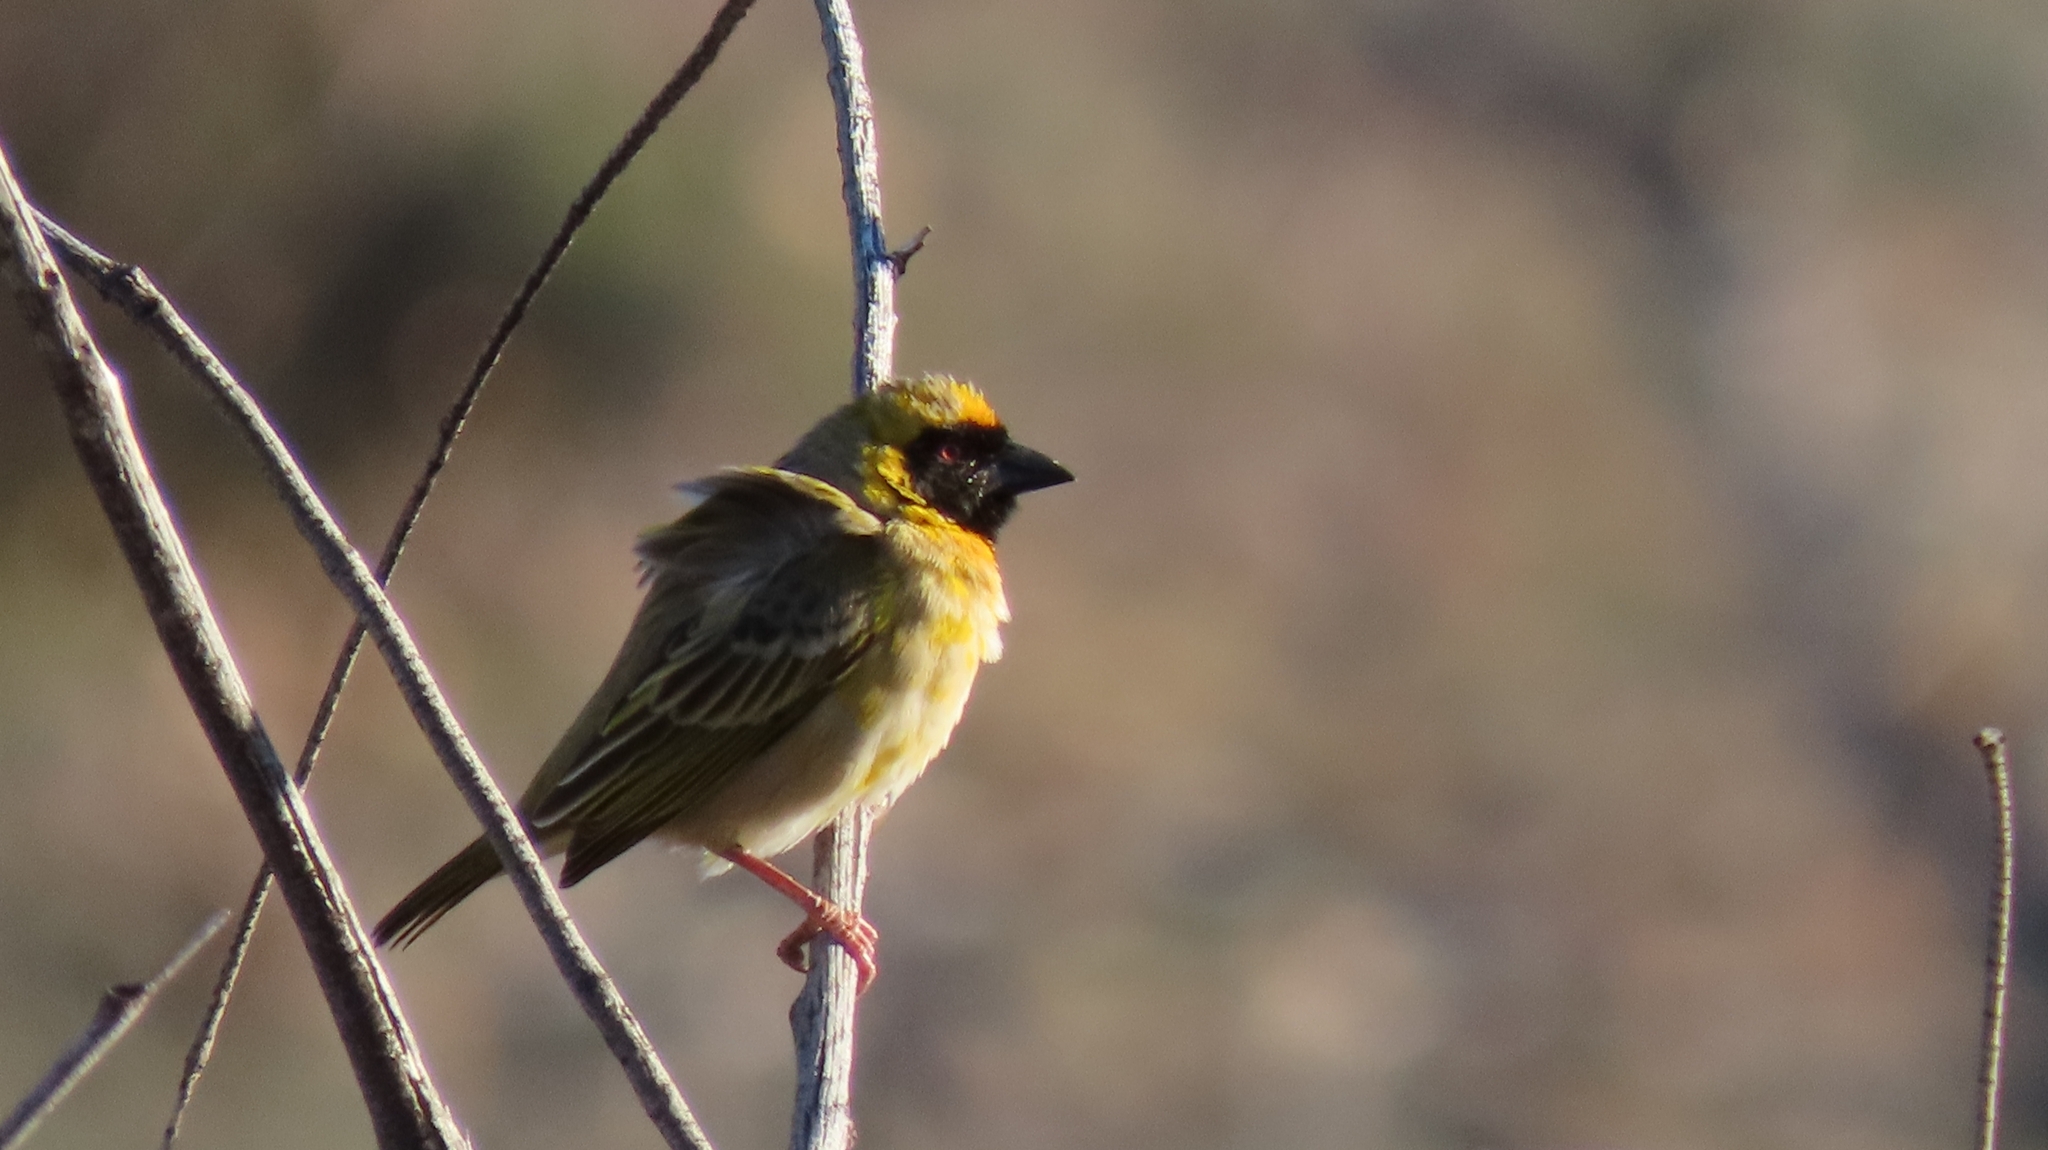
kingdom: Animalia
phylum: Chordata
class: Aves
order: Passeriformes
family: Ploceidae
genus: Ploceus
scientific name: Ploceus velatus
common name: Southern masked weaver
